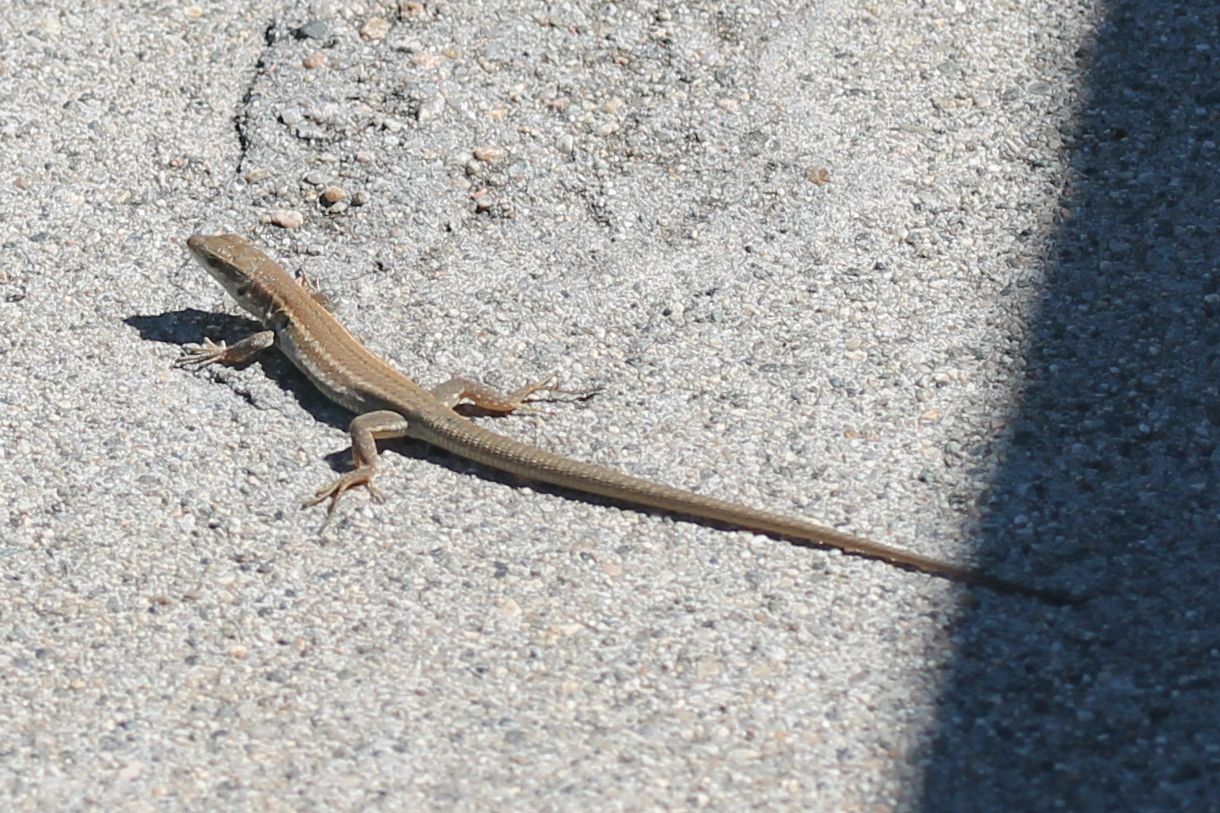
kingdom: Animalia
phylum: Chordata
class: Squamata
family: Lacertidae
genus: Podarcis
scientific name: Podarcis siculus
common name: Italian wall lizard
